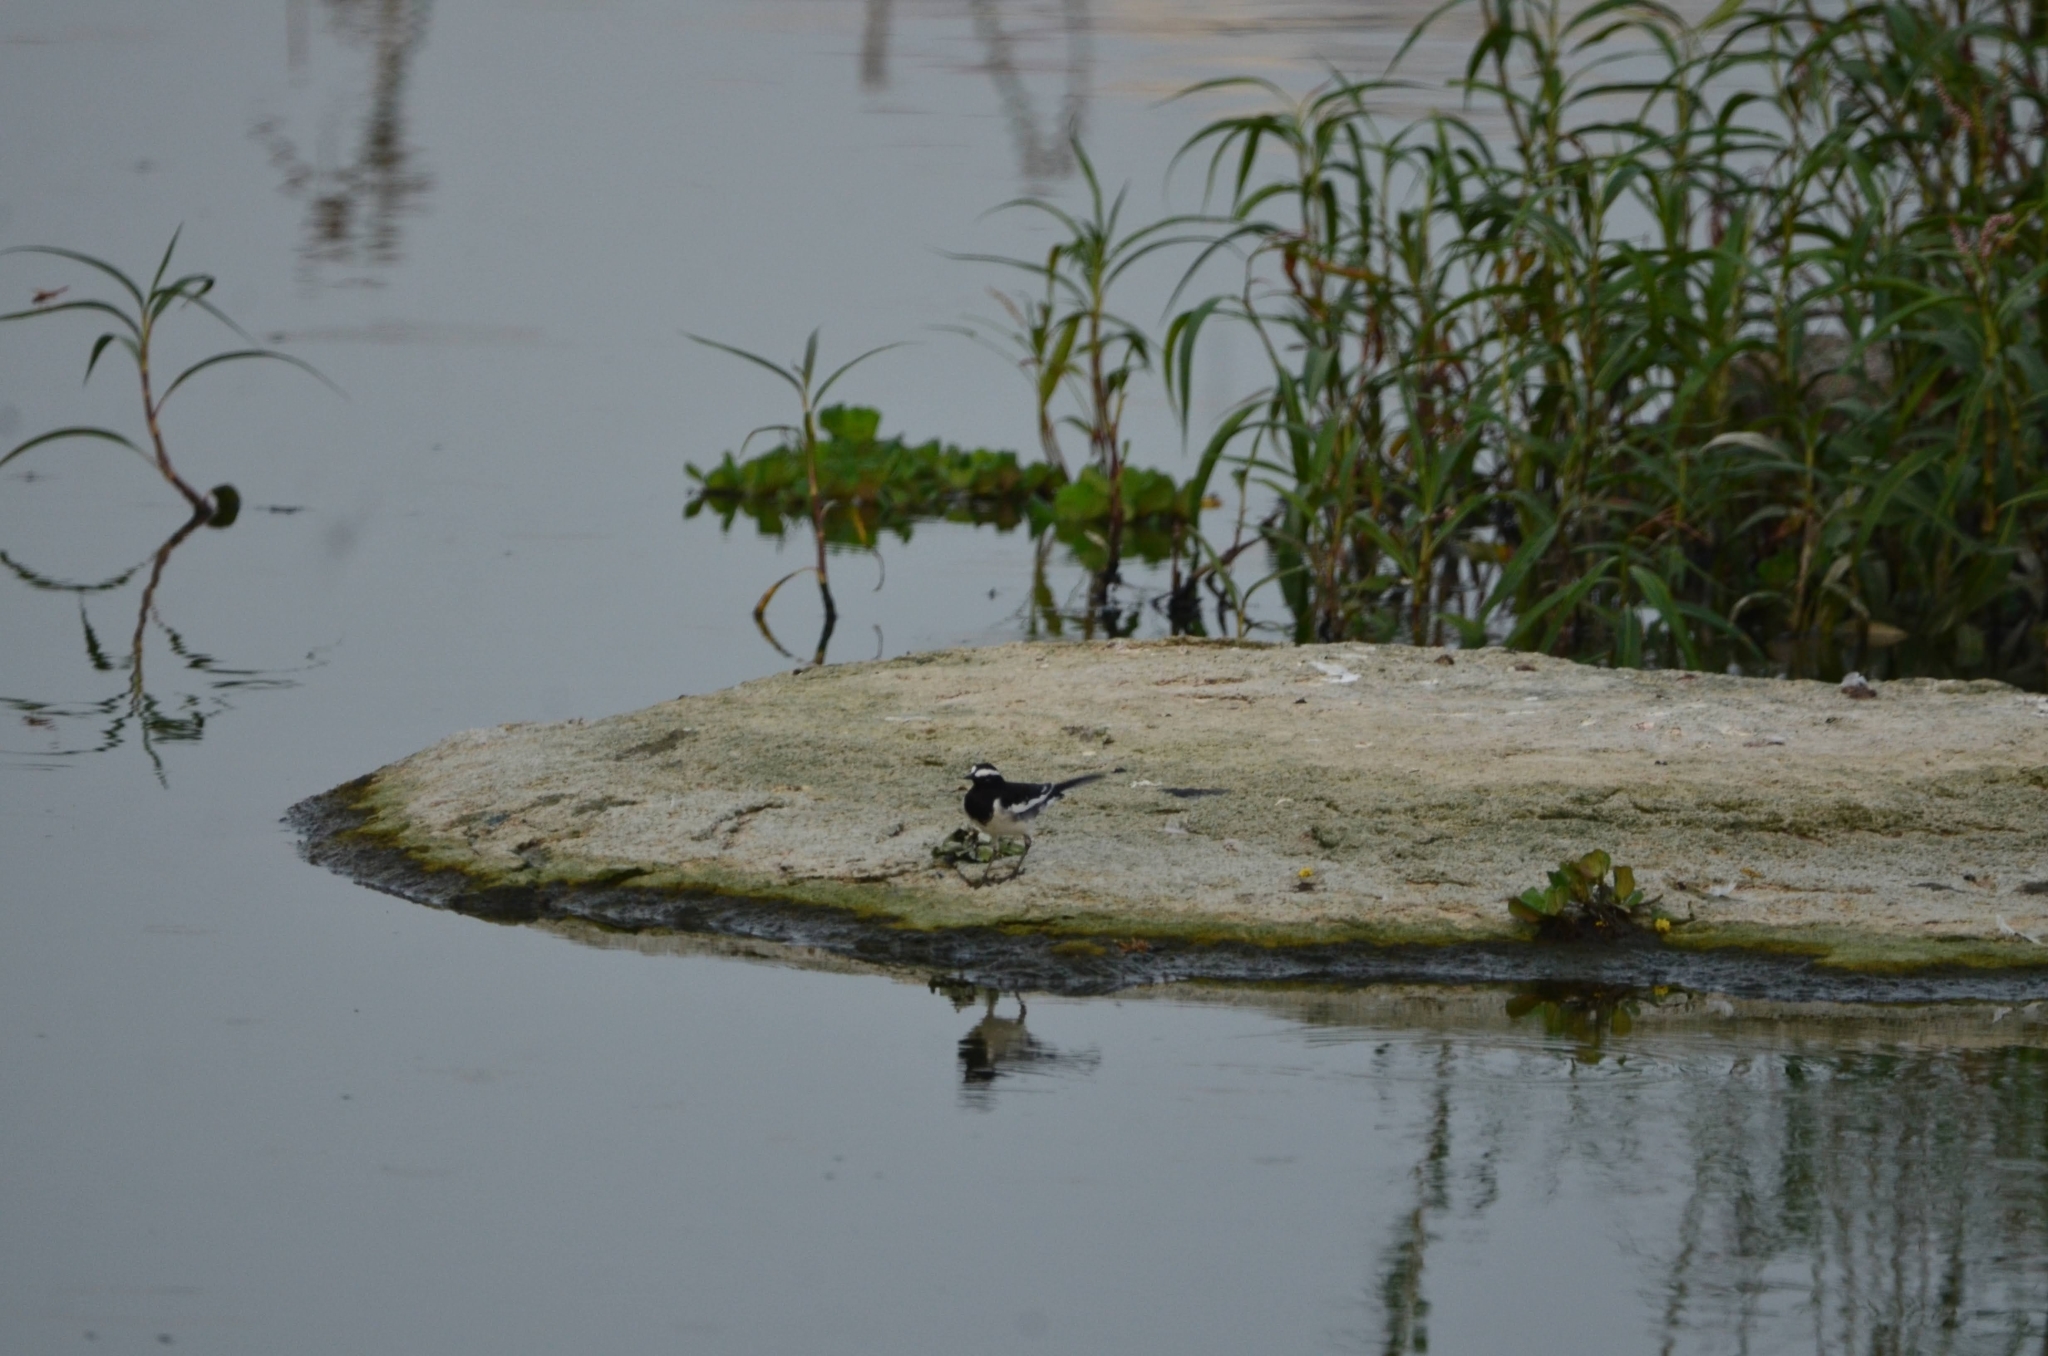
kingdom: Animalia
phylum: Chordata
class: Aves
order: Passeriformes
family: Motacillidae
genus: Motacilla
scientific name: Motacilla maderaspatensis
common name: White-browed wagtail
